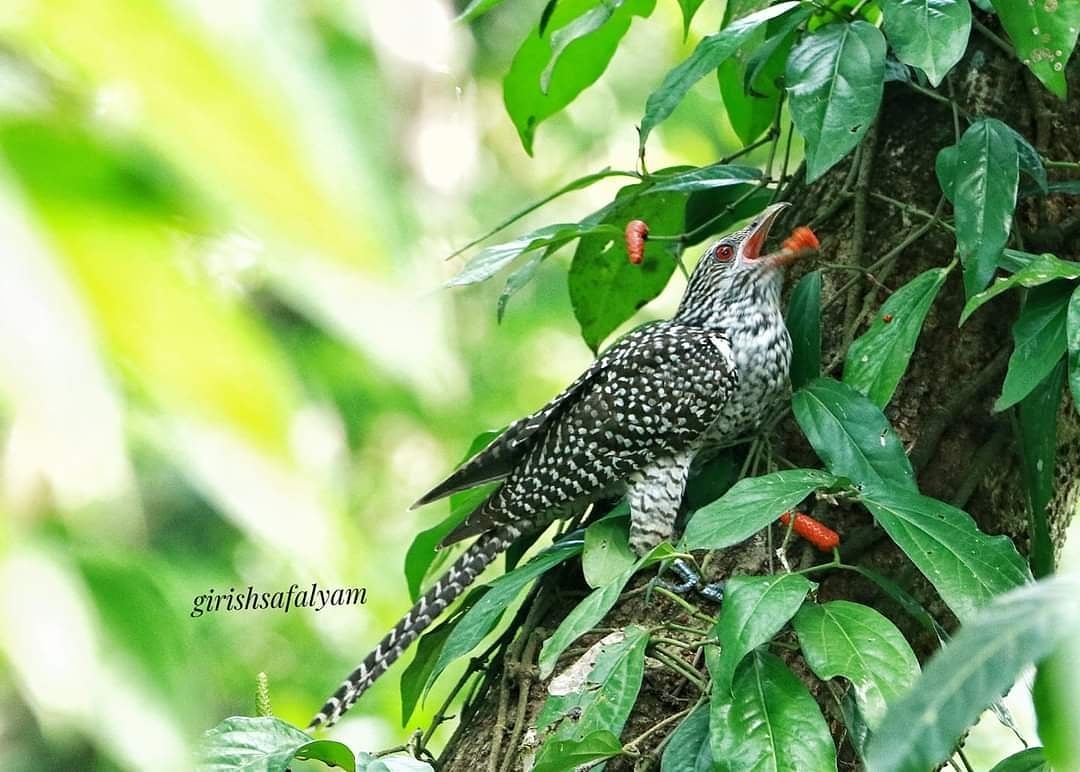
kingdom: Animalia
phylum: Chordata
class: Aves
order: Cuculiformes
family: Cuculidae
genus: Eudynamys
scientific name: Eudynamys scolopaceus
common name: Asian koel
